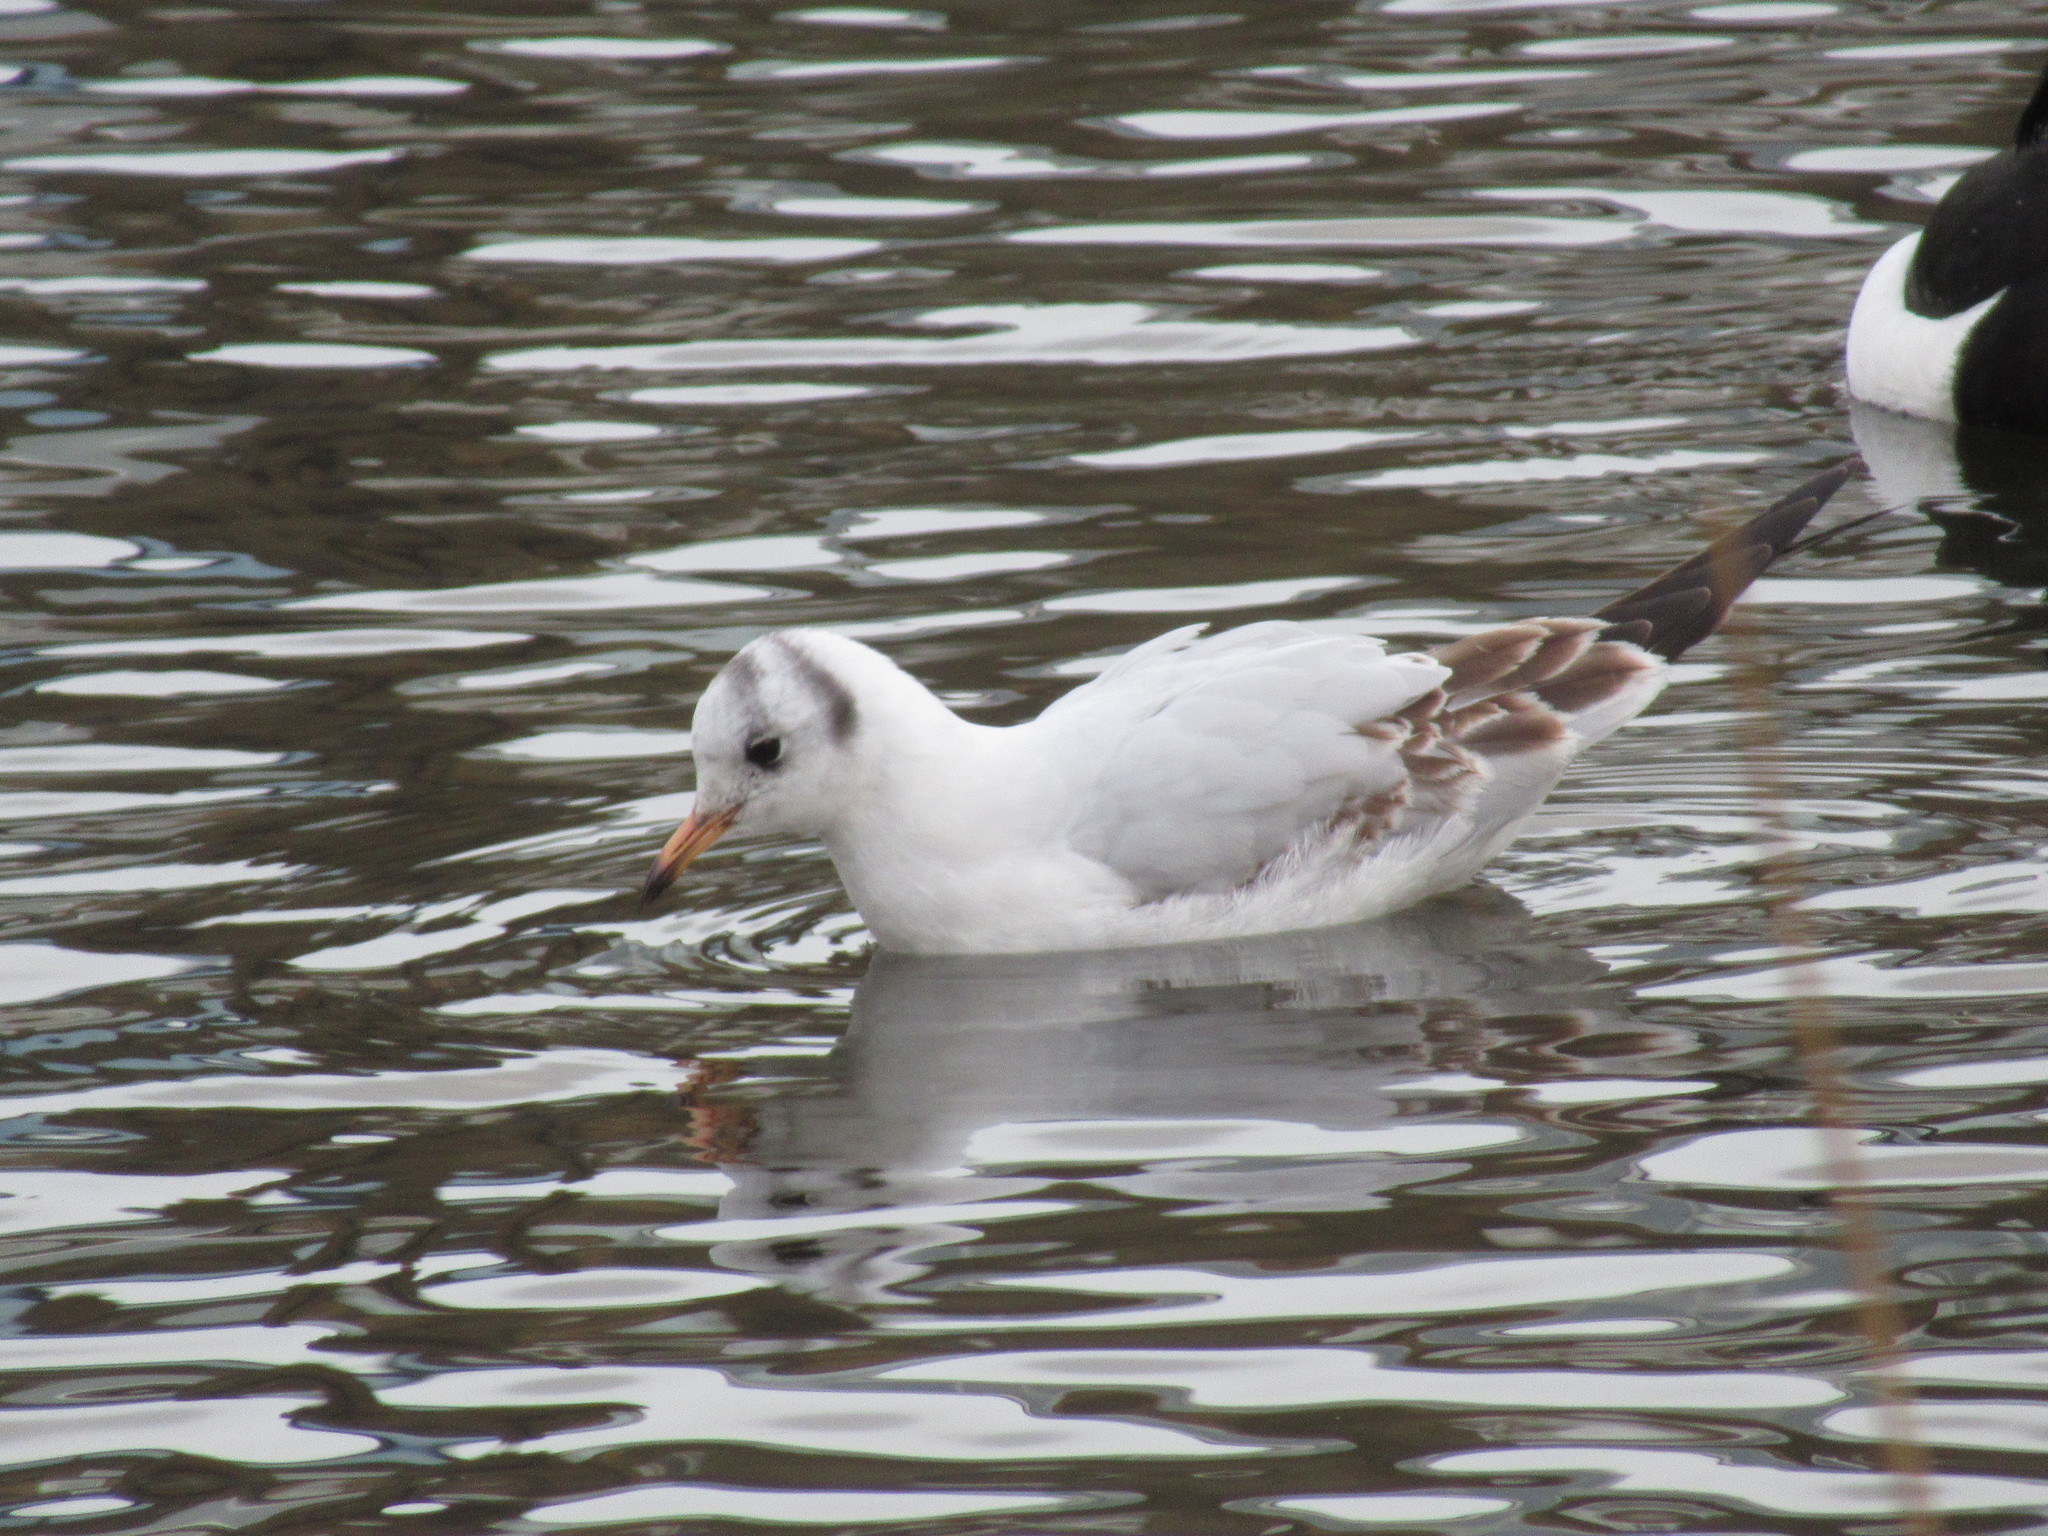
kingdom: Animalia
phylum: Chordata
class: Aves
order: Charadriiformes
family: Laridae
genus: Chroicocephalus
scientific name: Chroicocephalus ridibundus
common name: Black-headed gull
